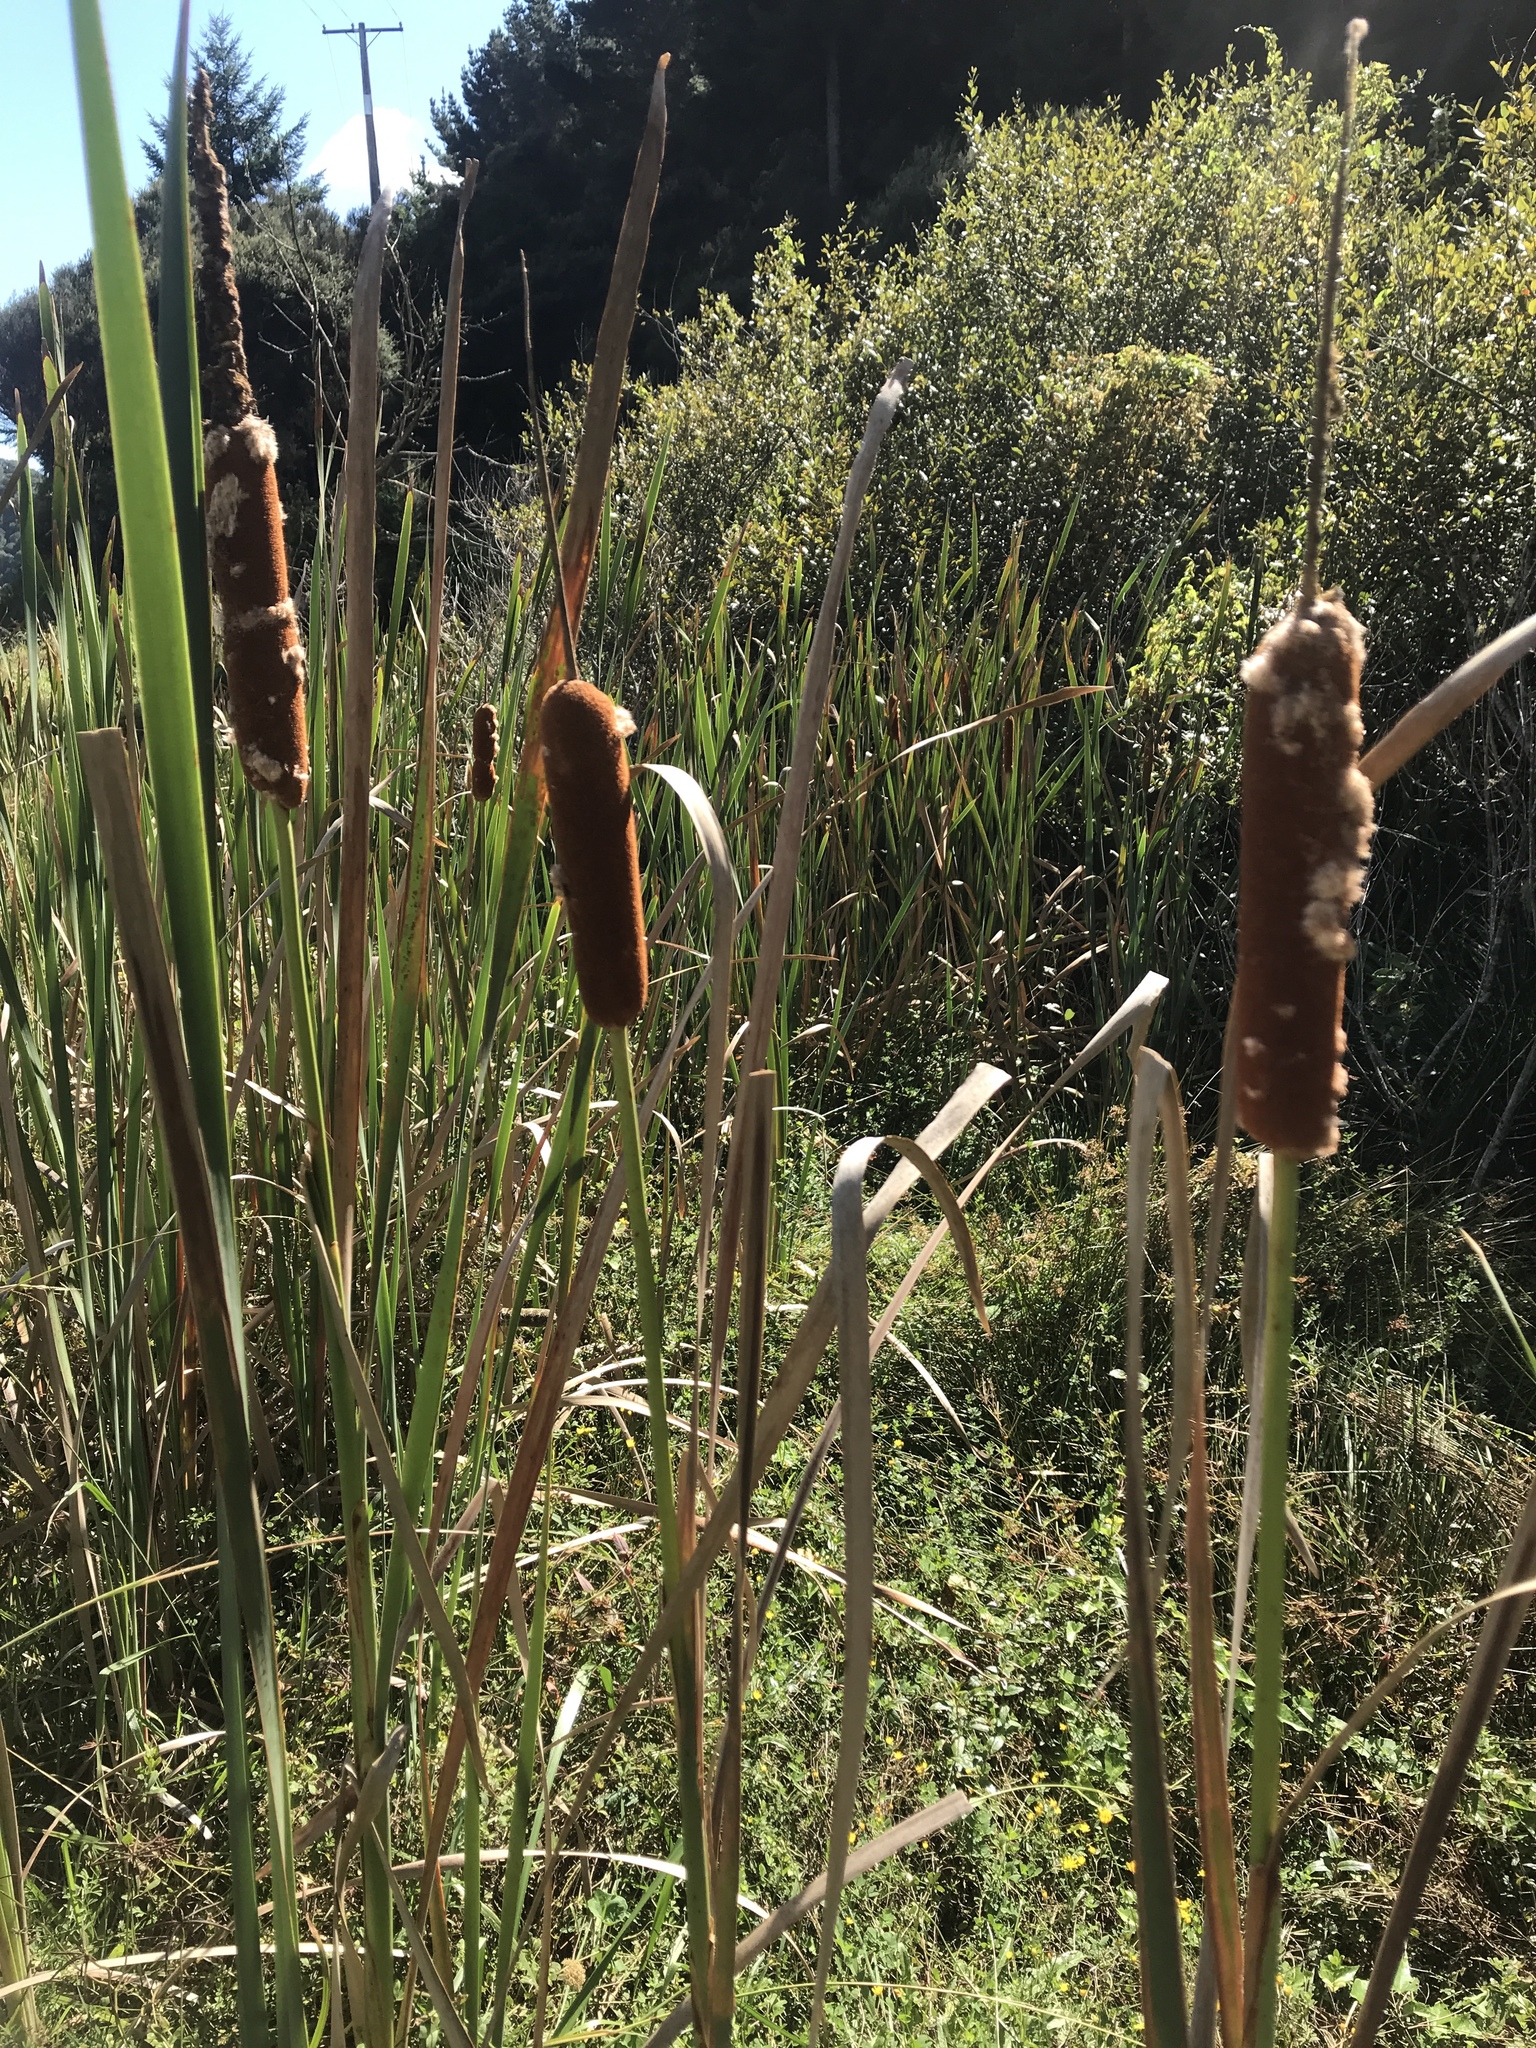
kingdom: Plantae
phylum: Tracheophyta
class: Liliopsida
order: Poales
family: Typhaceae
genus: Typha
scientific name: Typha orientalis
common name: Bullrush
